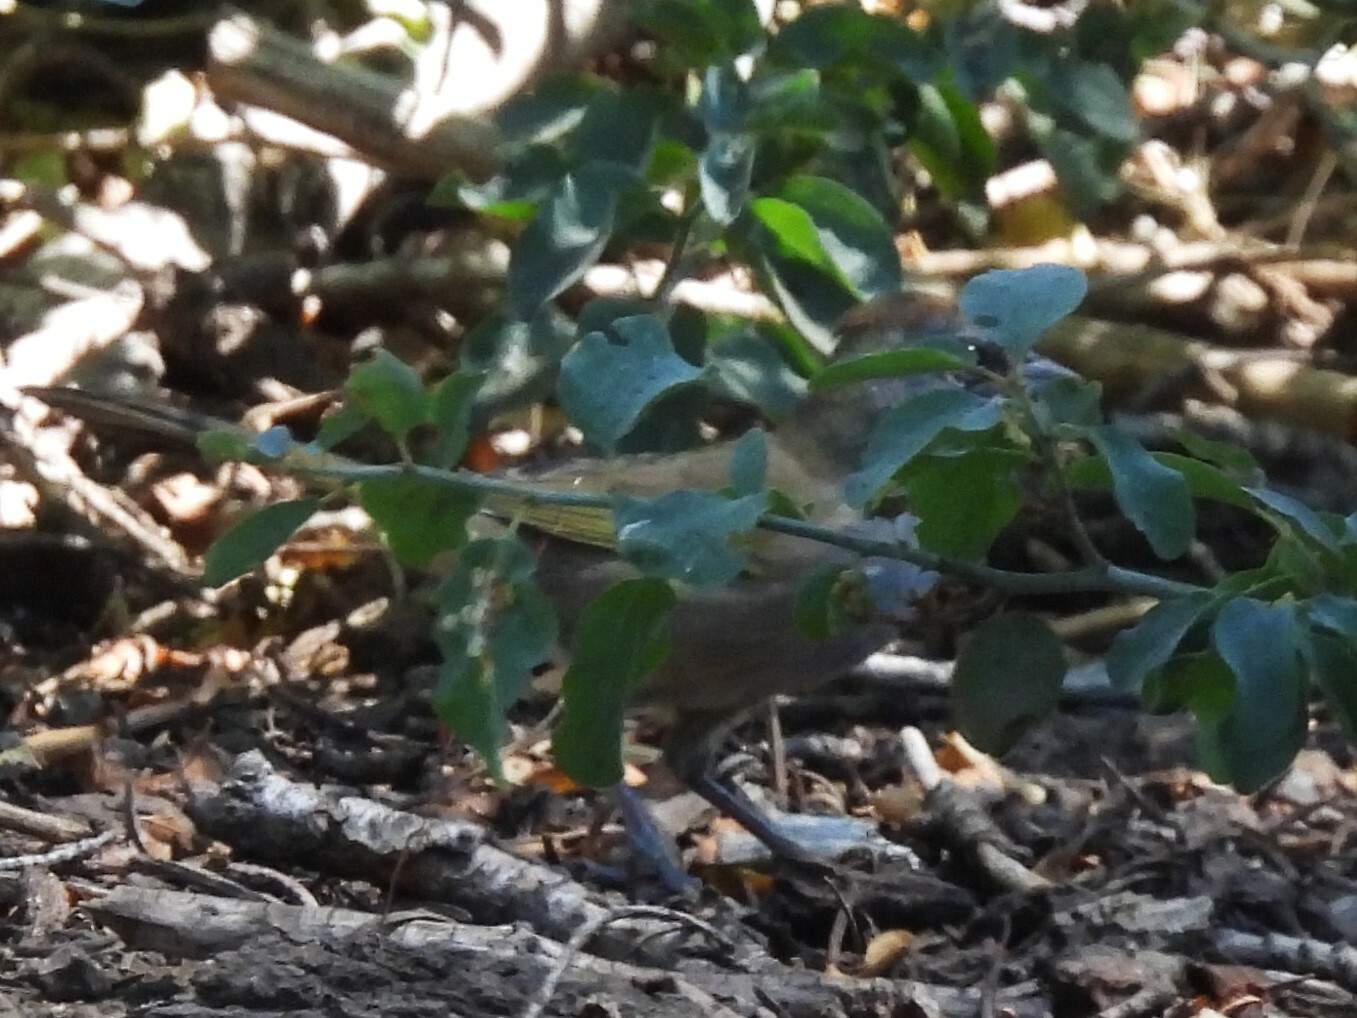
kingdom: Animalia
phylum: Chordata
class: Aves
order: Passeriformes
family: Passerellidae
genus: Pipilo
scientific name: Pipilo chlorurus
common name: Green-tailed towhee
